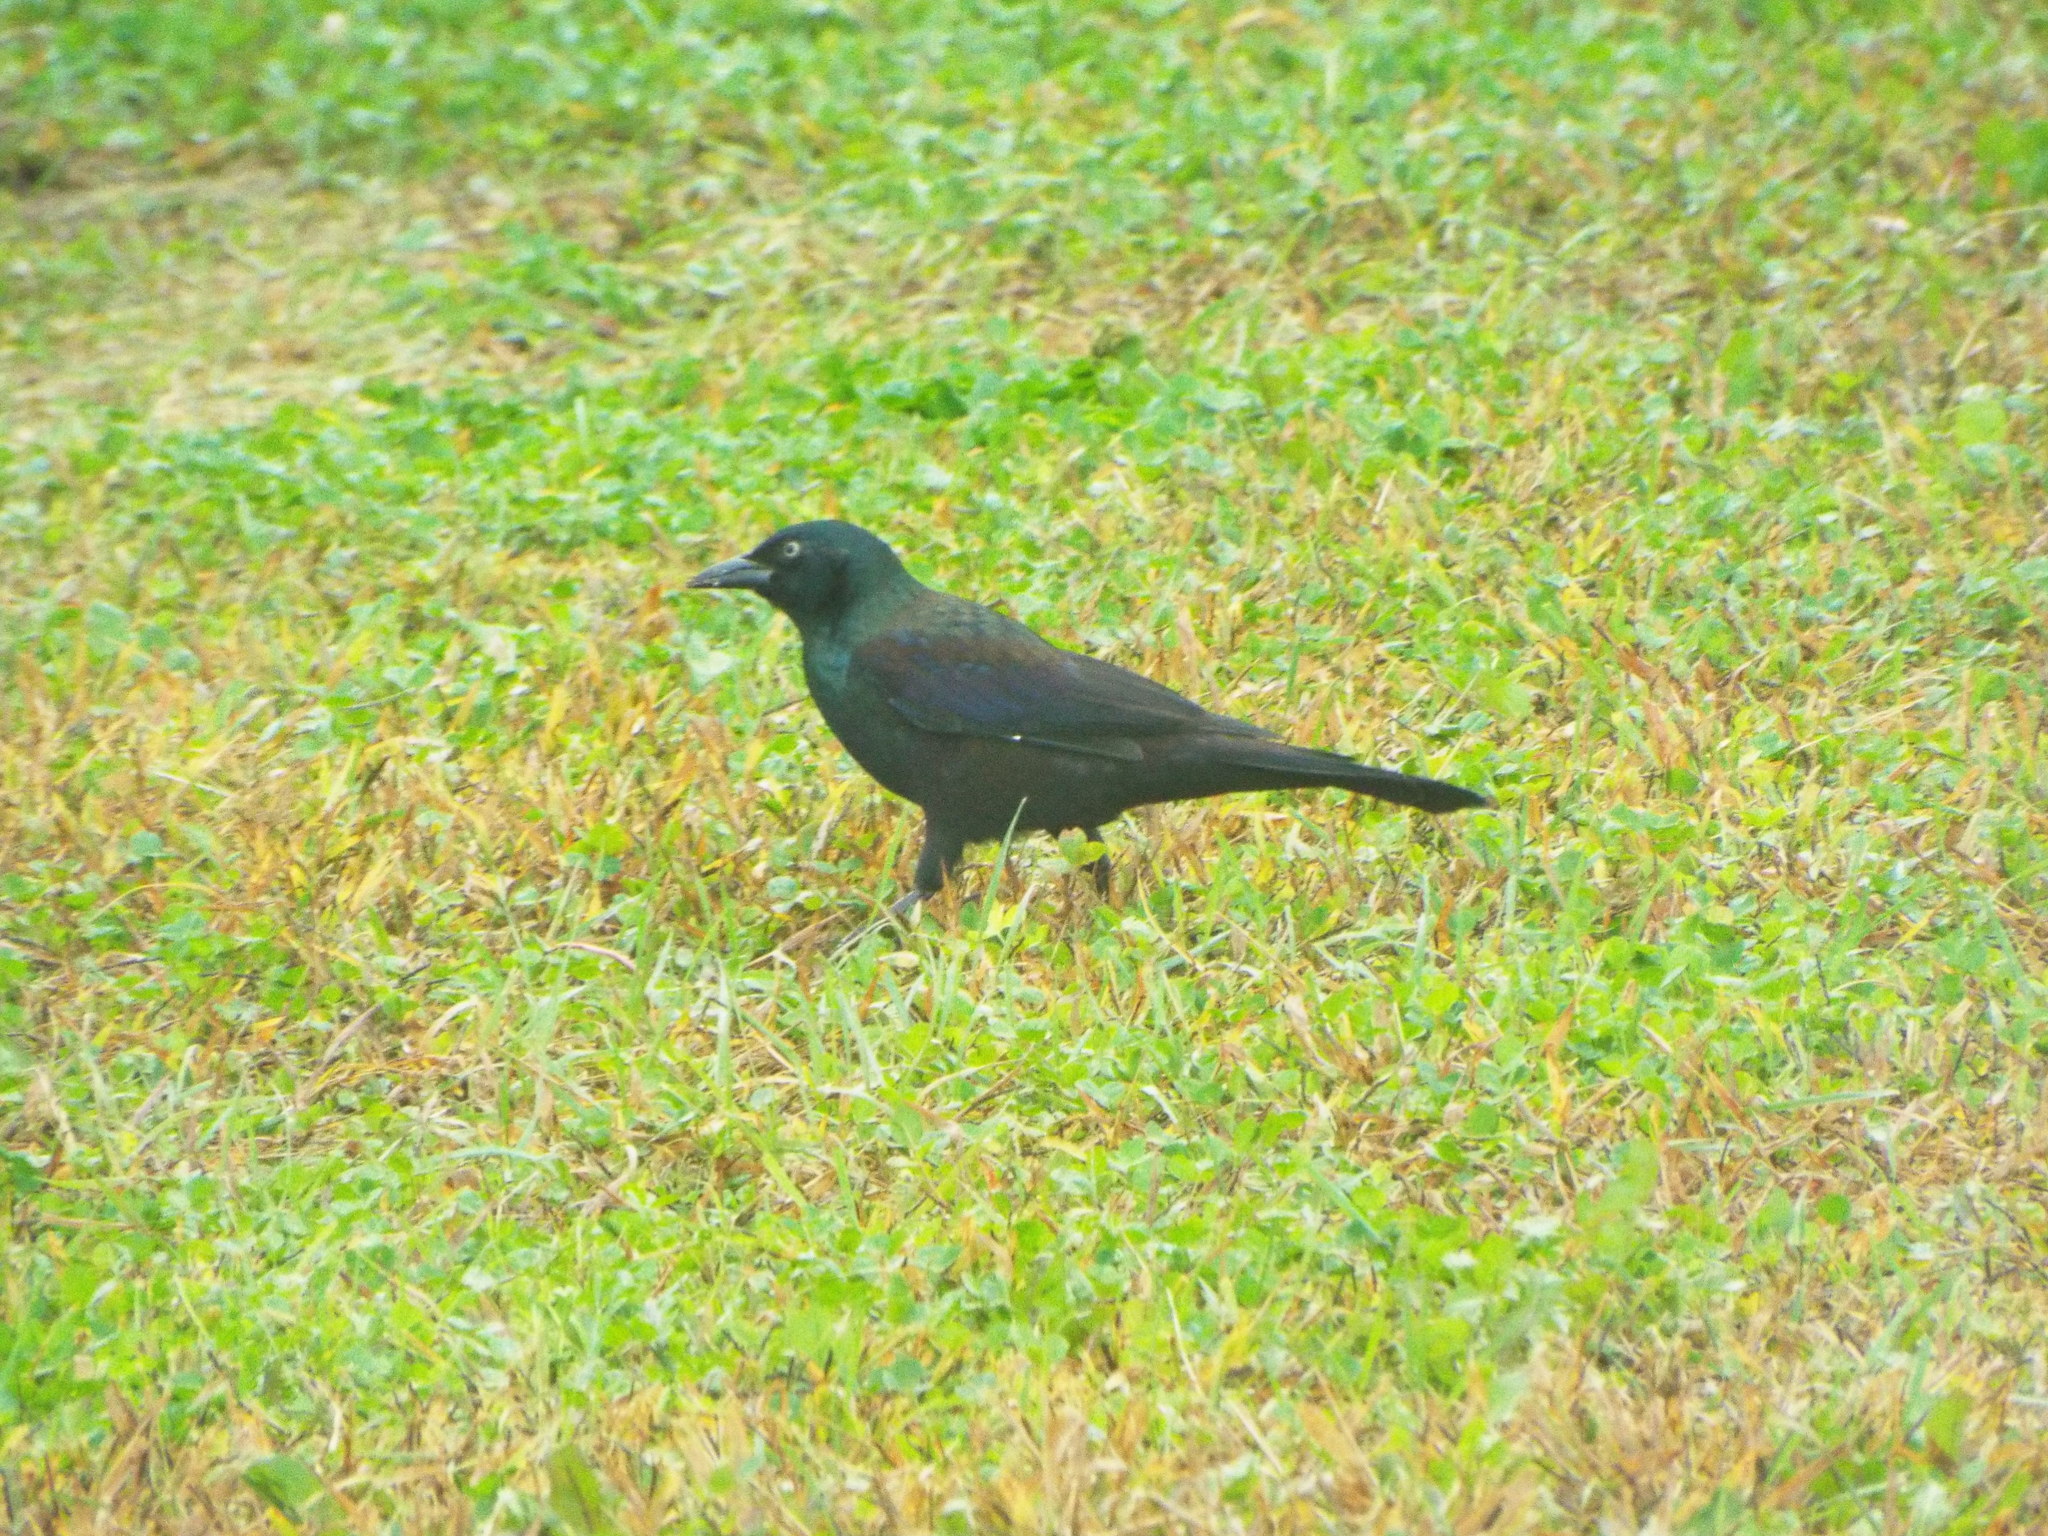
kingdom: Animalia
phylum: Chordata
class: Aves
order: Passeriformes
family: Icteridae
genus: Quiscalus
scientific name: Quiscalus quiscula
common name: Common grackle
